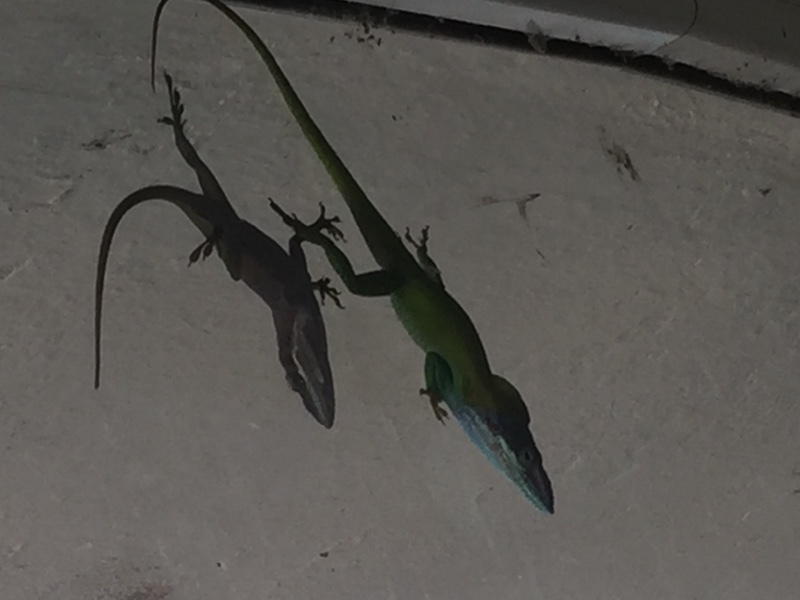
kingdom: Animalia
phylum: Chordata
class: Squamata
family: Dactyloidae
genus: Anolis
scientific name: Anolis allisoni
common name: Allison's anole
